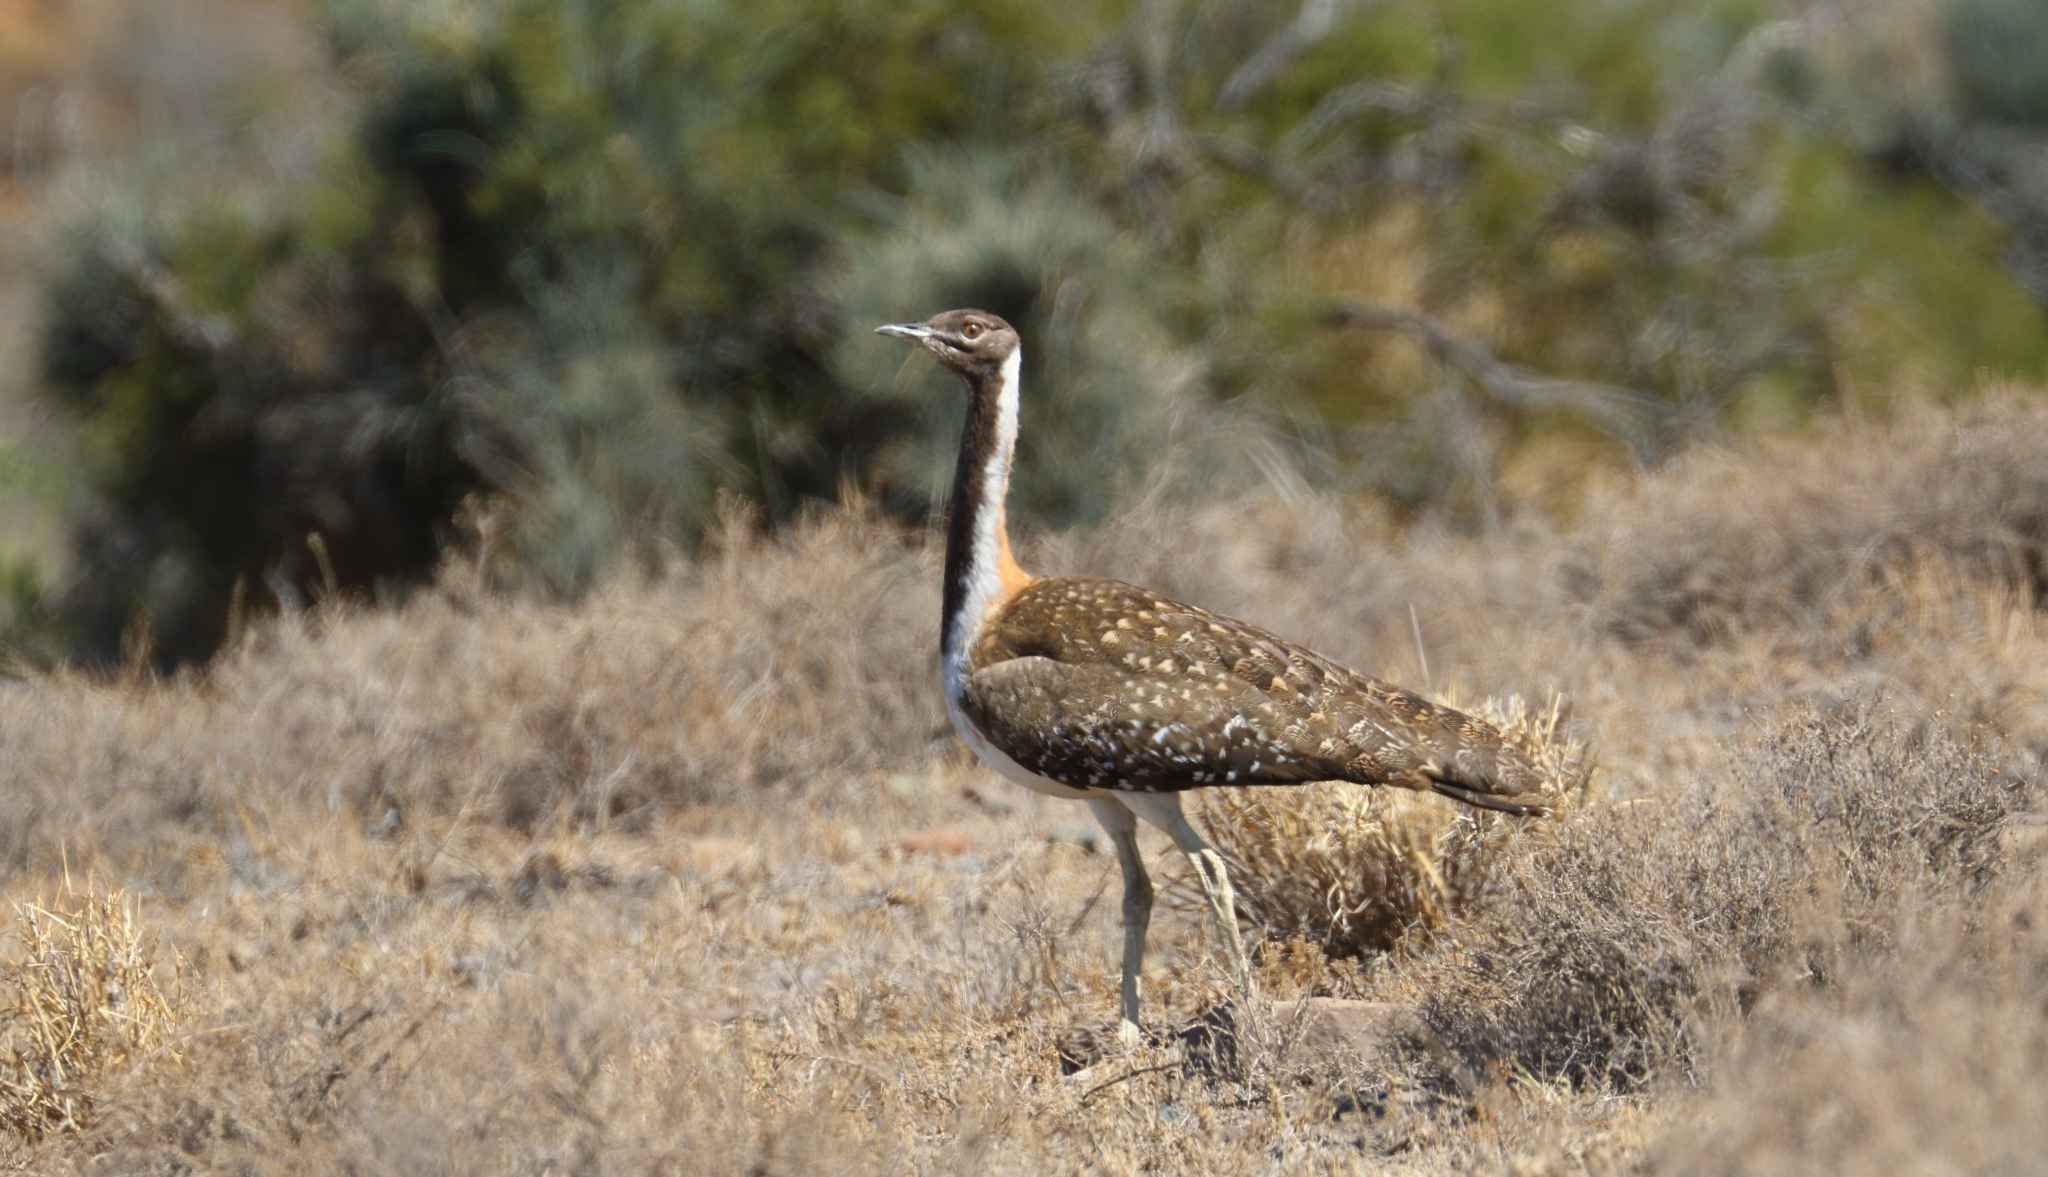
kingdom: Animalia
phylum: Chordata
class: Aves
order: Otidiformes
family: Otididae
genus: Neotis
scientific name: Neotis ludwigii
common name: Ludwig's bustard
